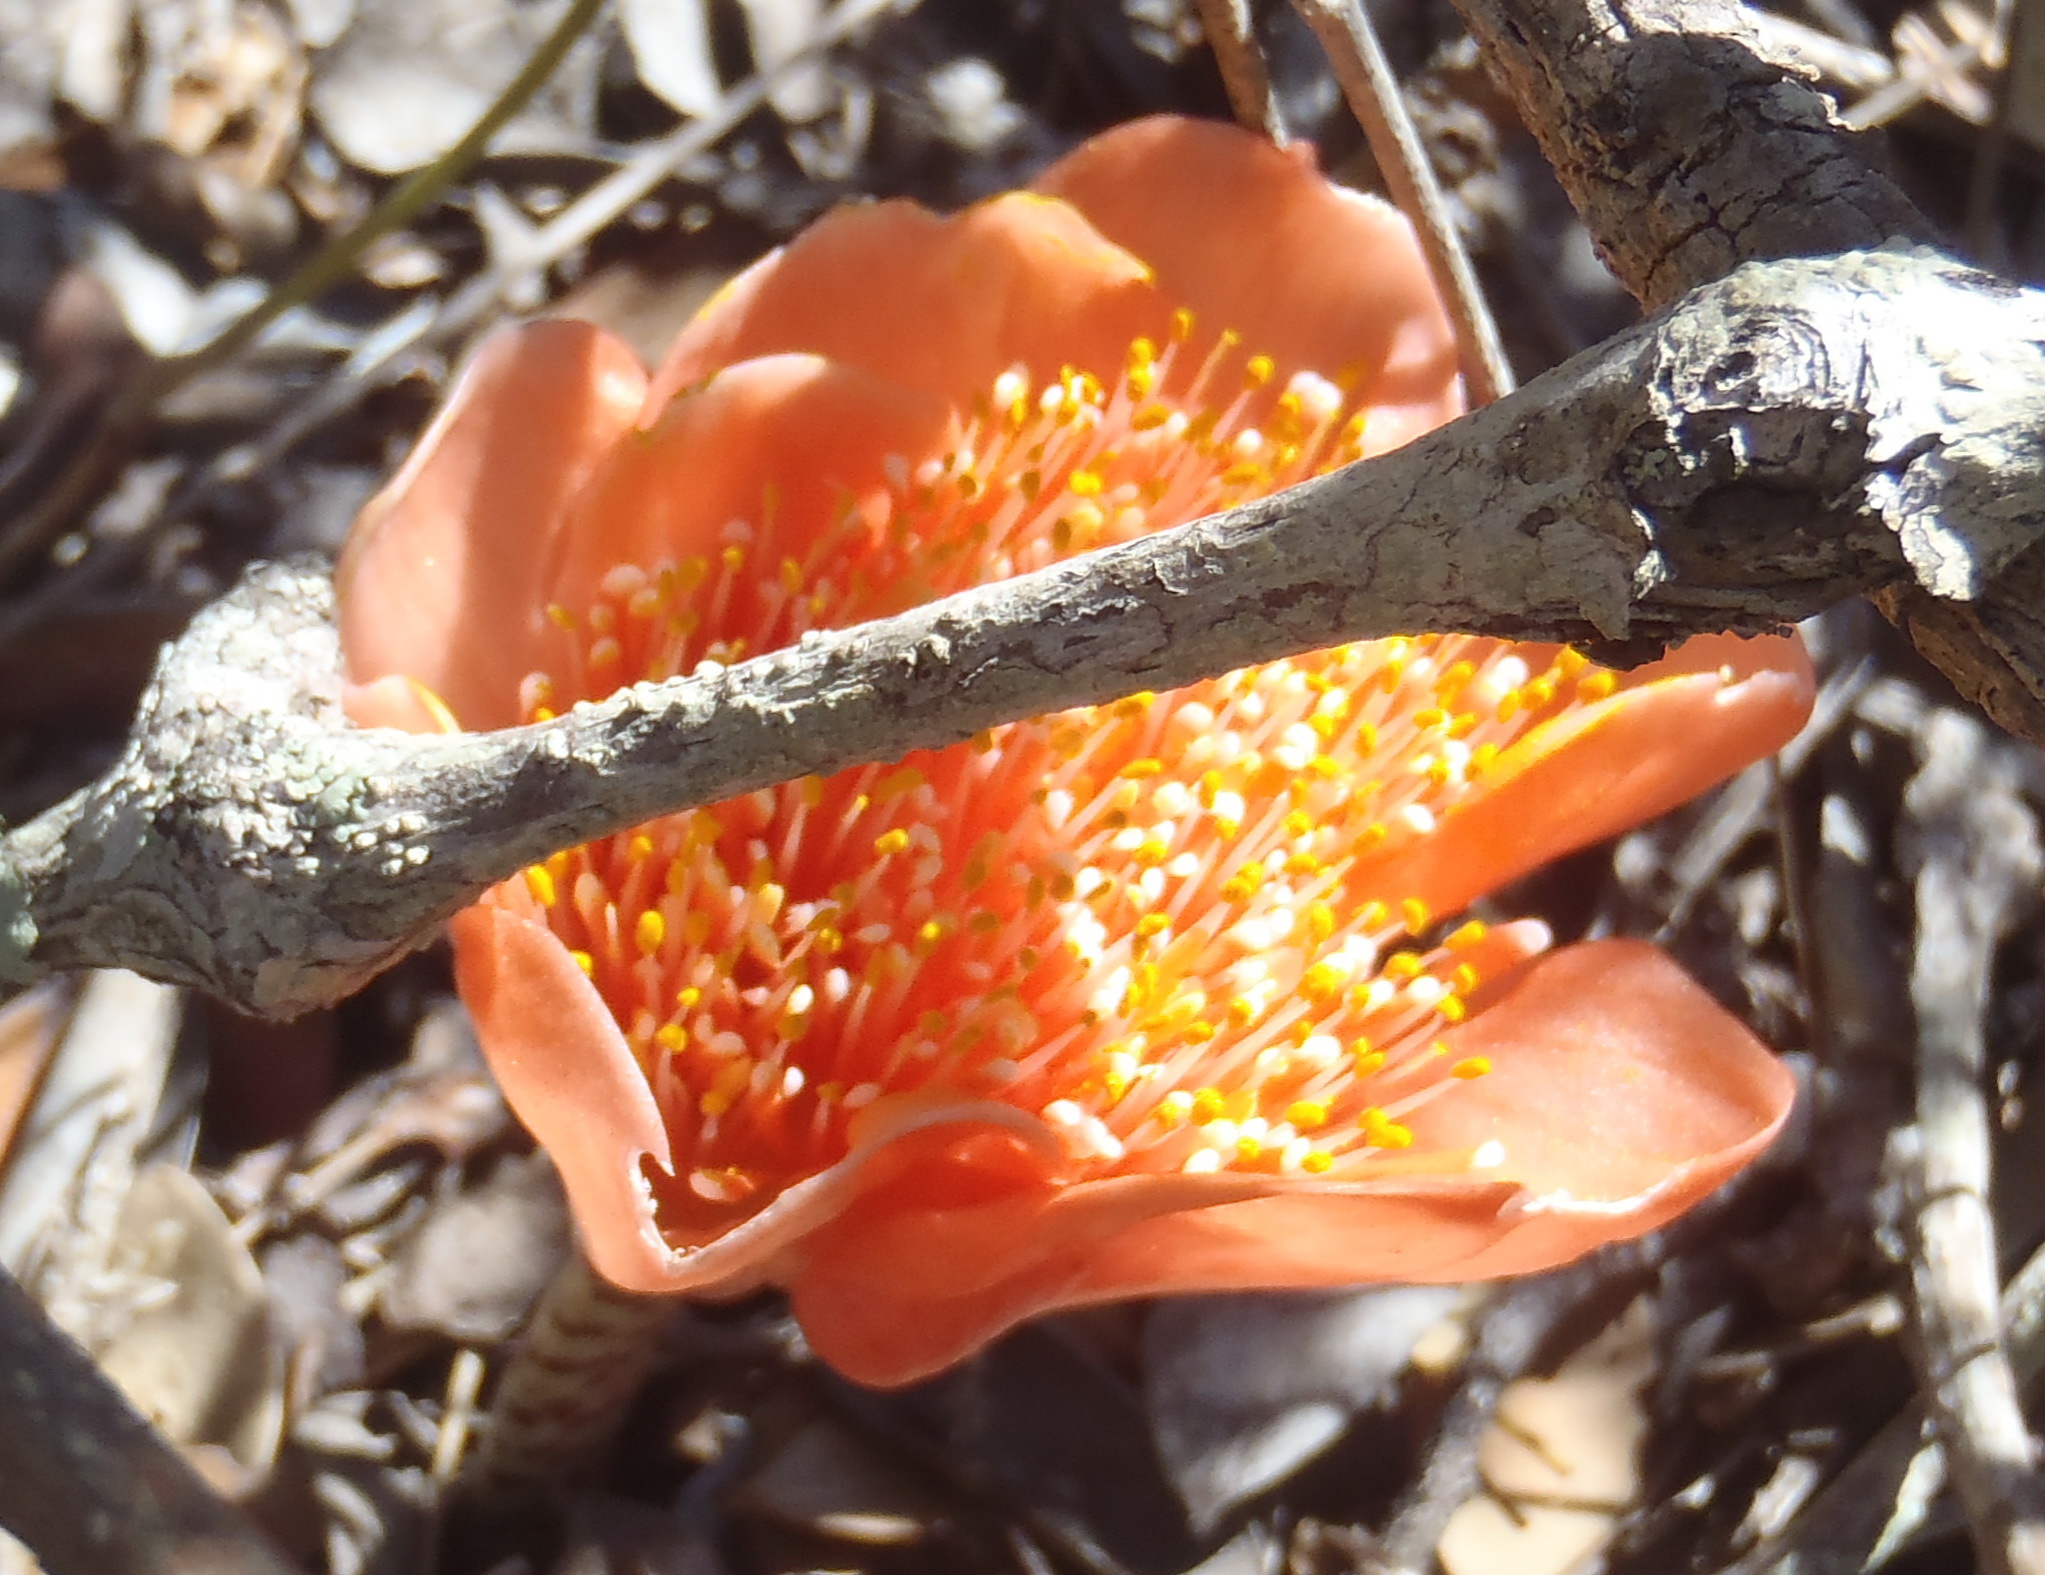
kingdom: Plantae
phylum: Tracheophyta
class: Liliopsida
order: Asparagales
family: Amaryllidaceae
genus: Haemanthus
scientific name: Haemanthus coccineus
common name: Cape-tulip
